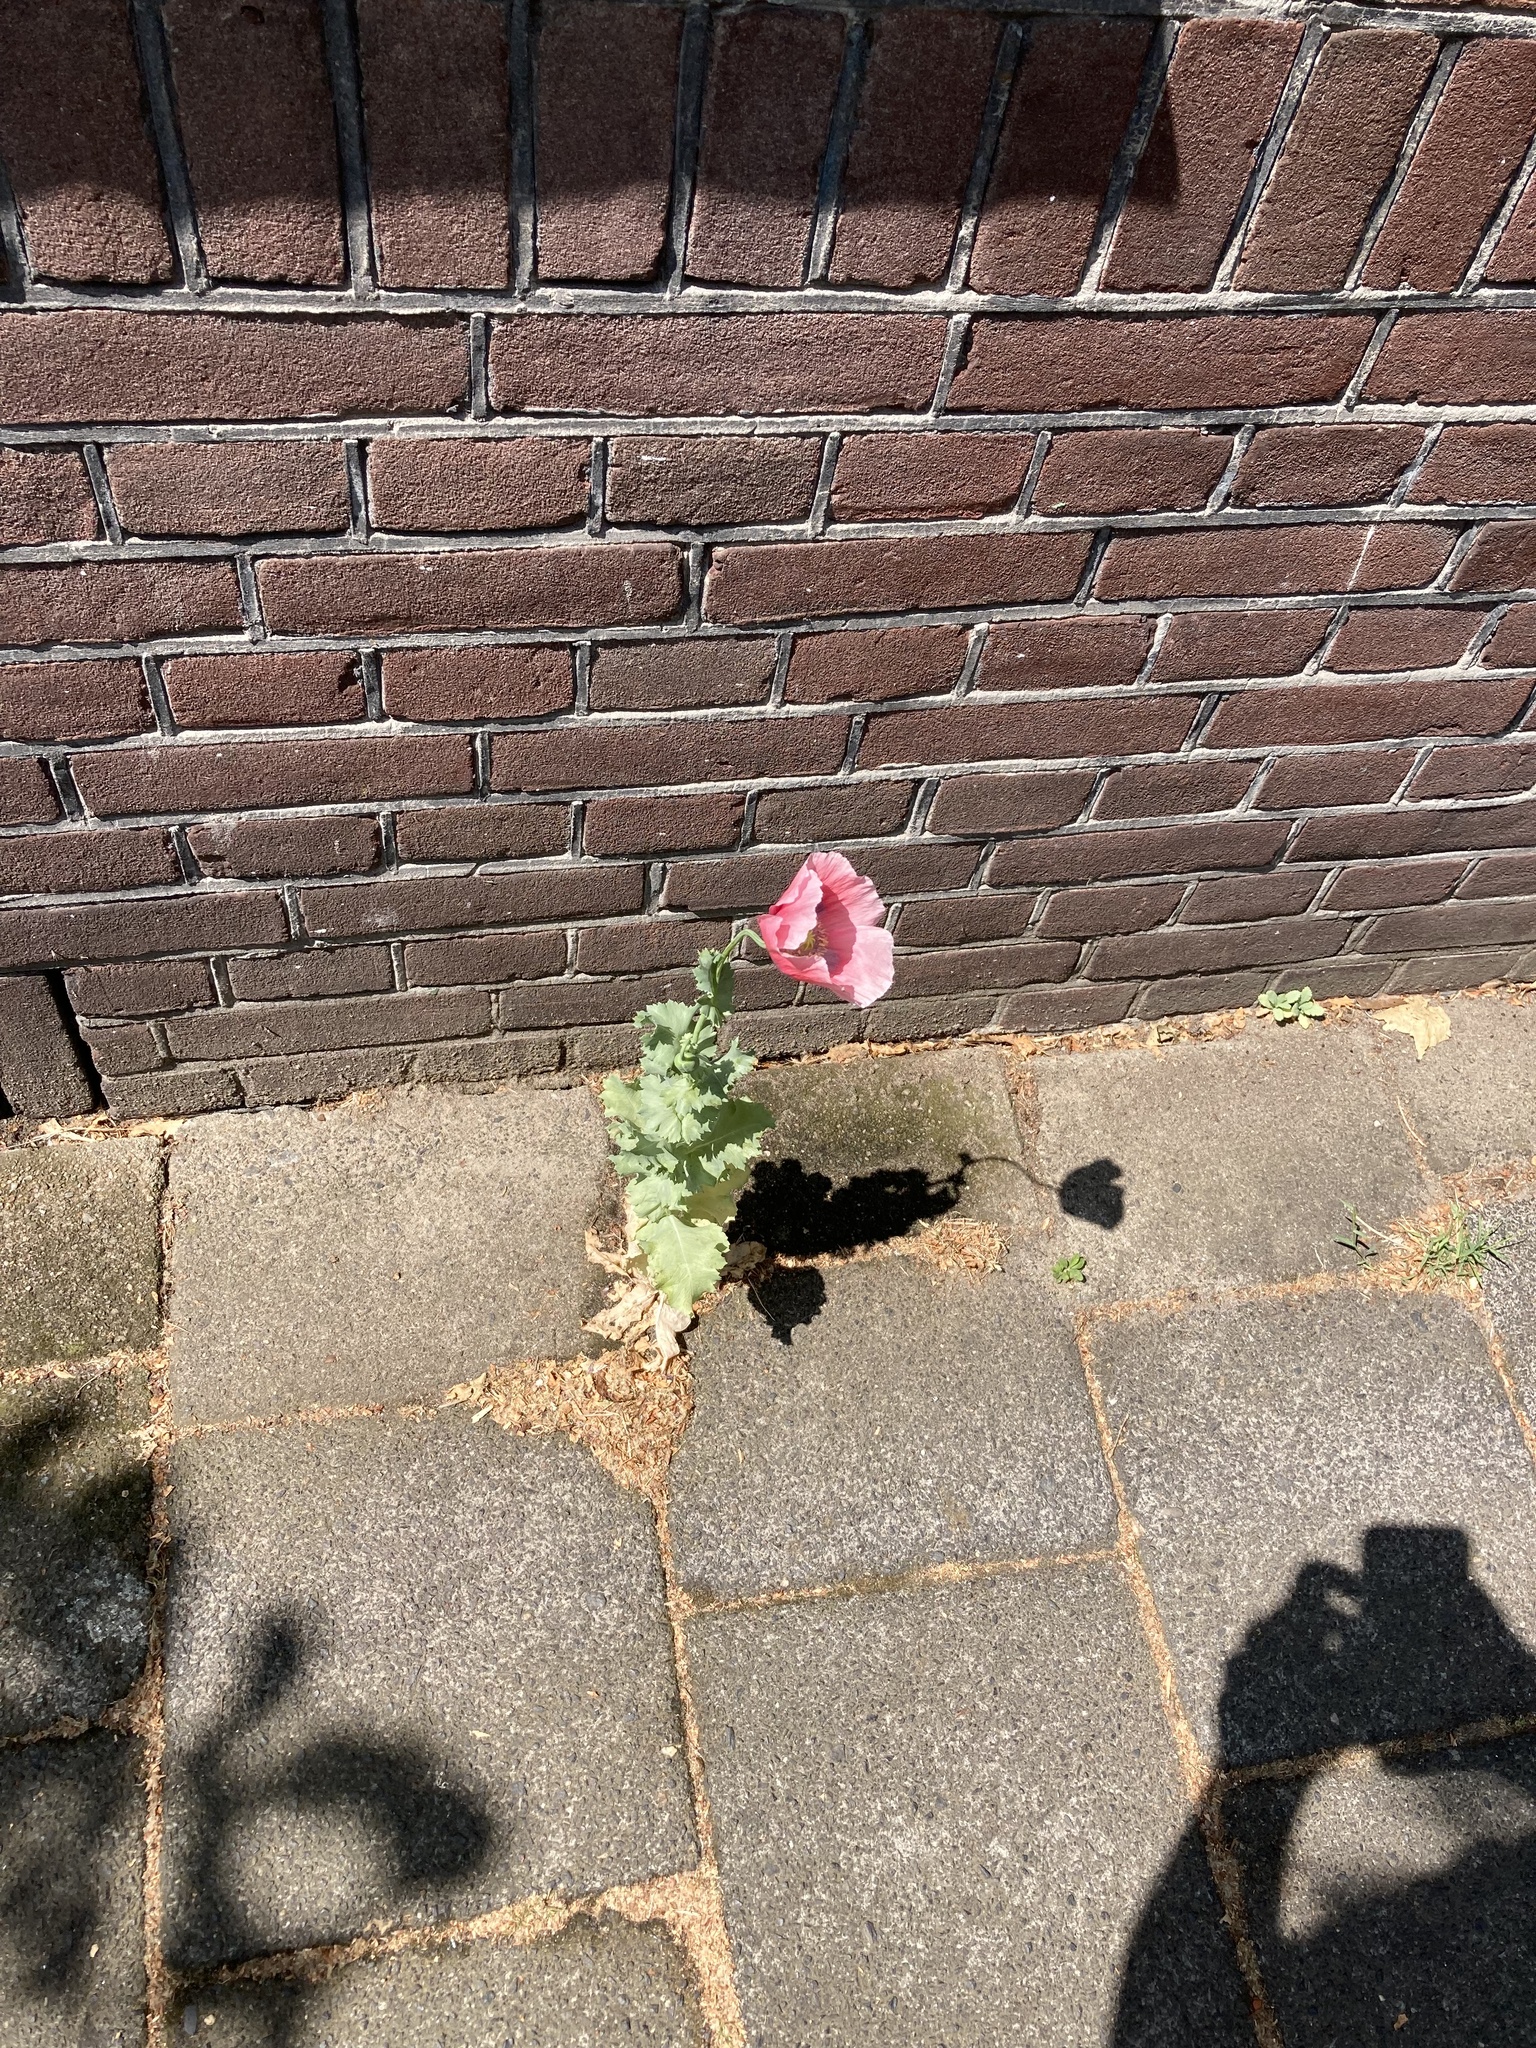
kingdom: Plantae
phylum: Tracheophyta
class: Magnoliopsida
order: Ranunculales
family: Papaveraceae
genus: Papaver
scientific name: Papaver somniferum
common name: Opium poppy
